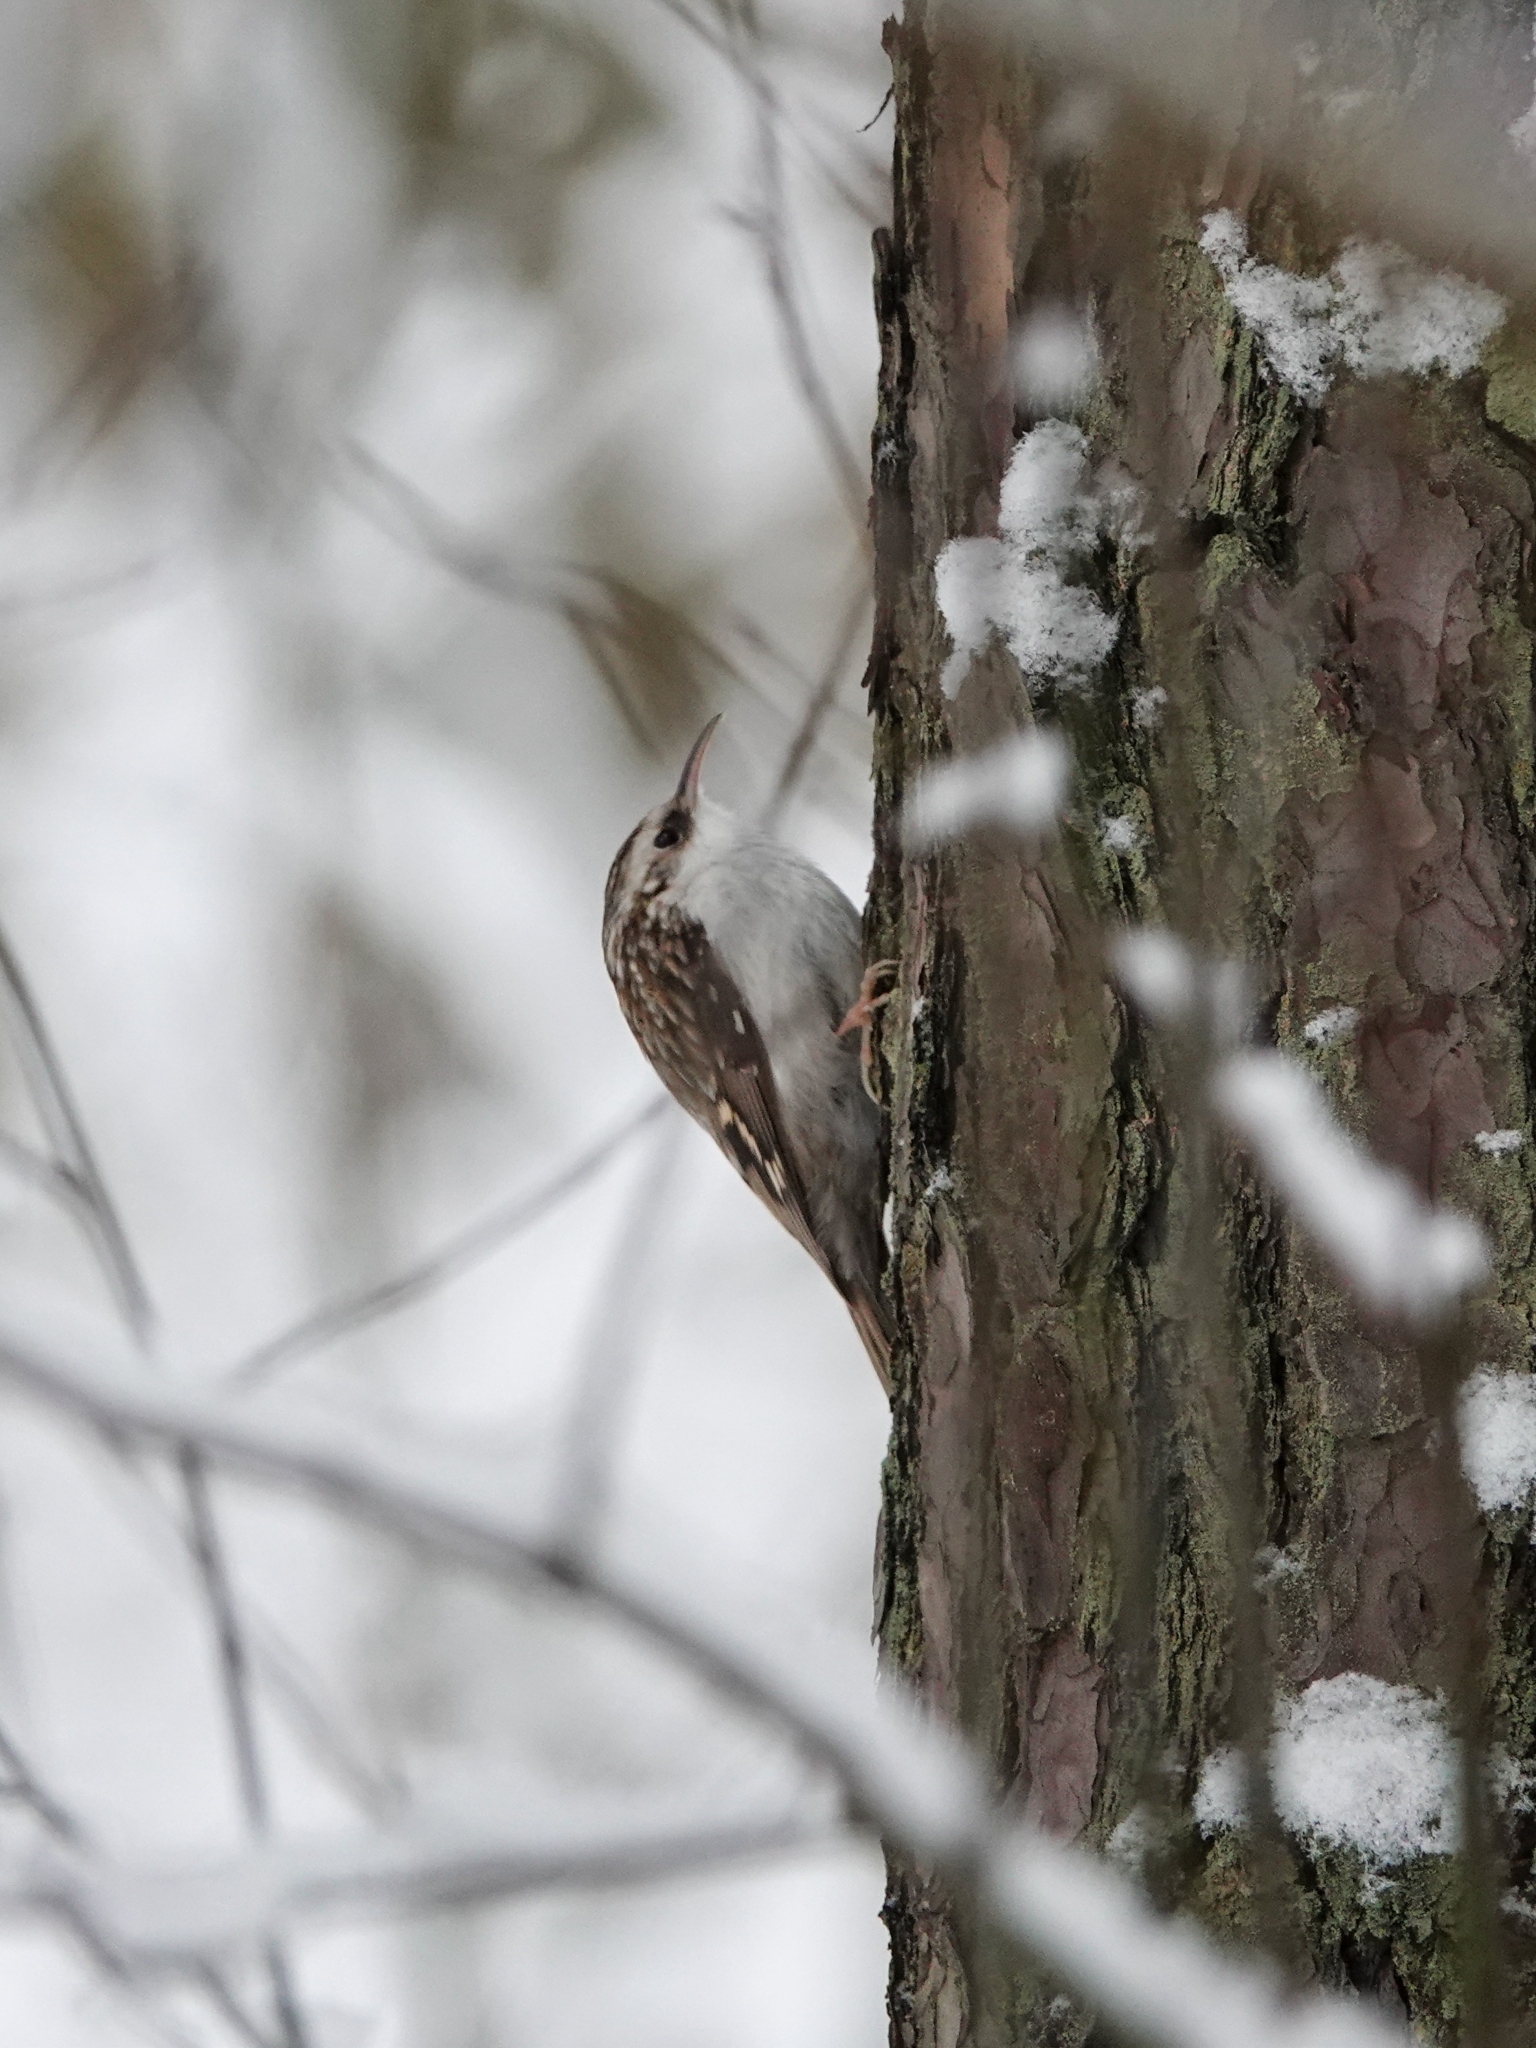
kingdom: Animalia
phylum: Chordata
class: Aves
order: Passeriformes
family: Certhiidae
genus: Certhia
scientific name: Certhia familiaris
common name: Eurasian treecreeper
